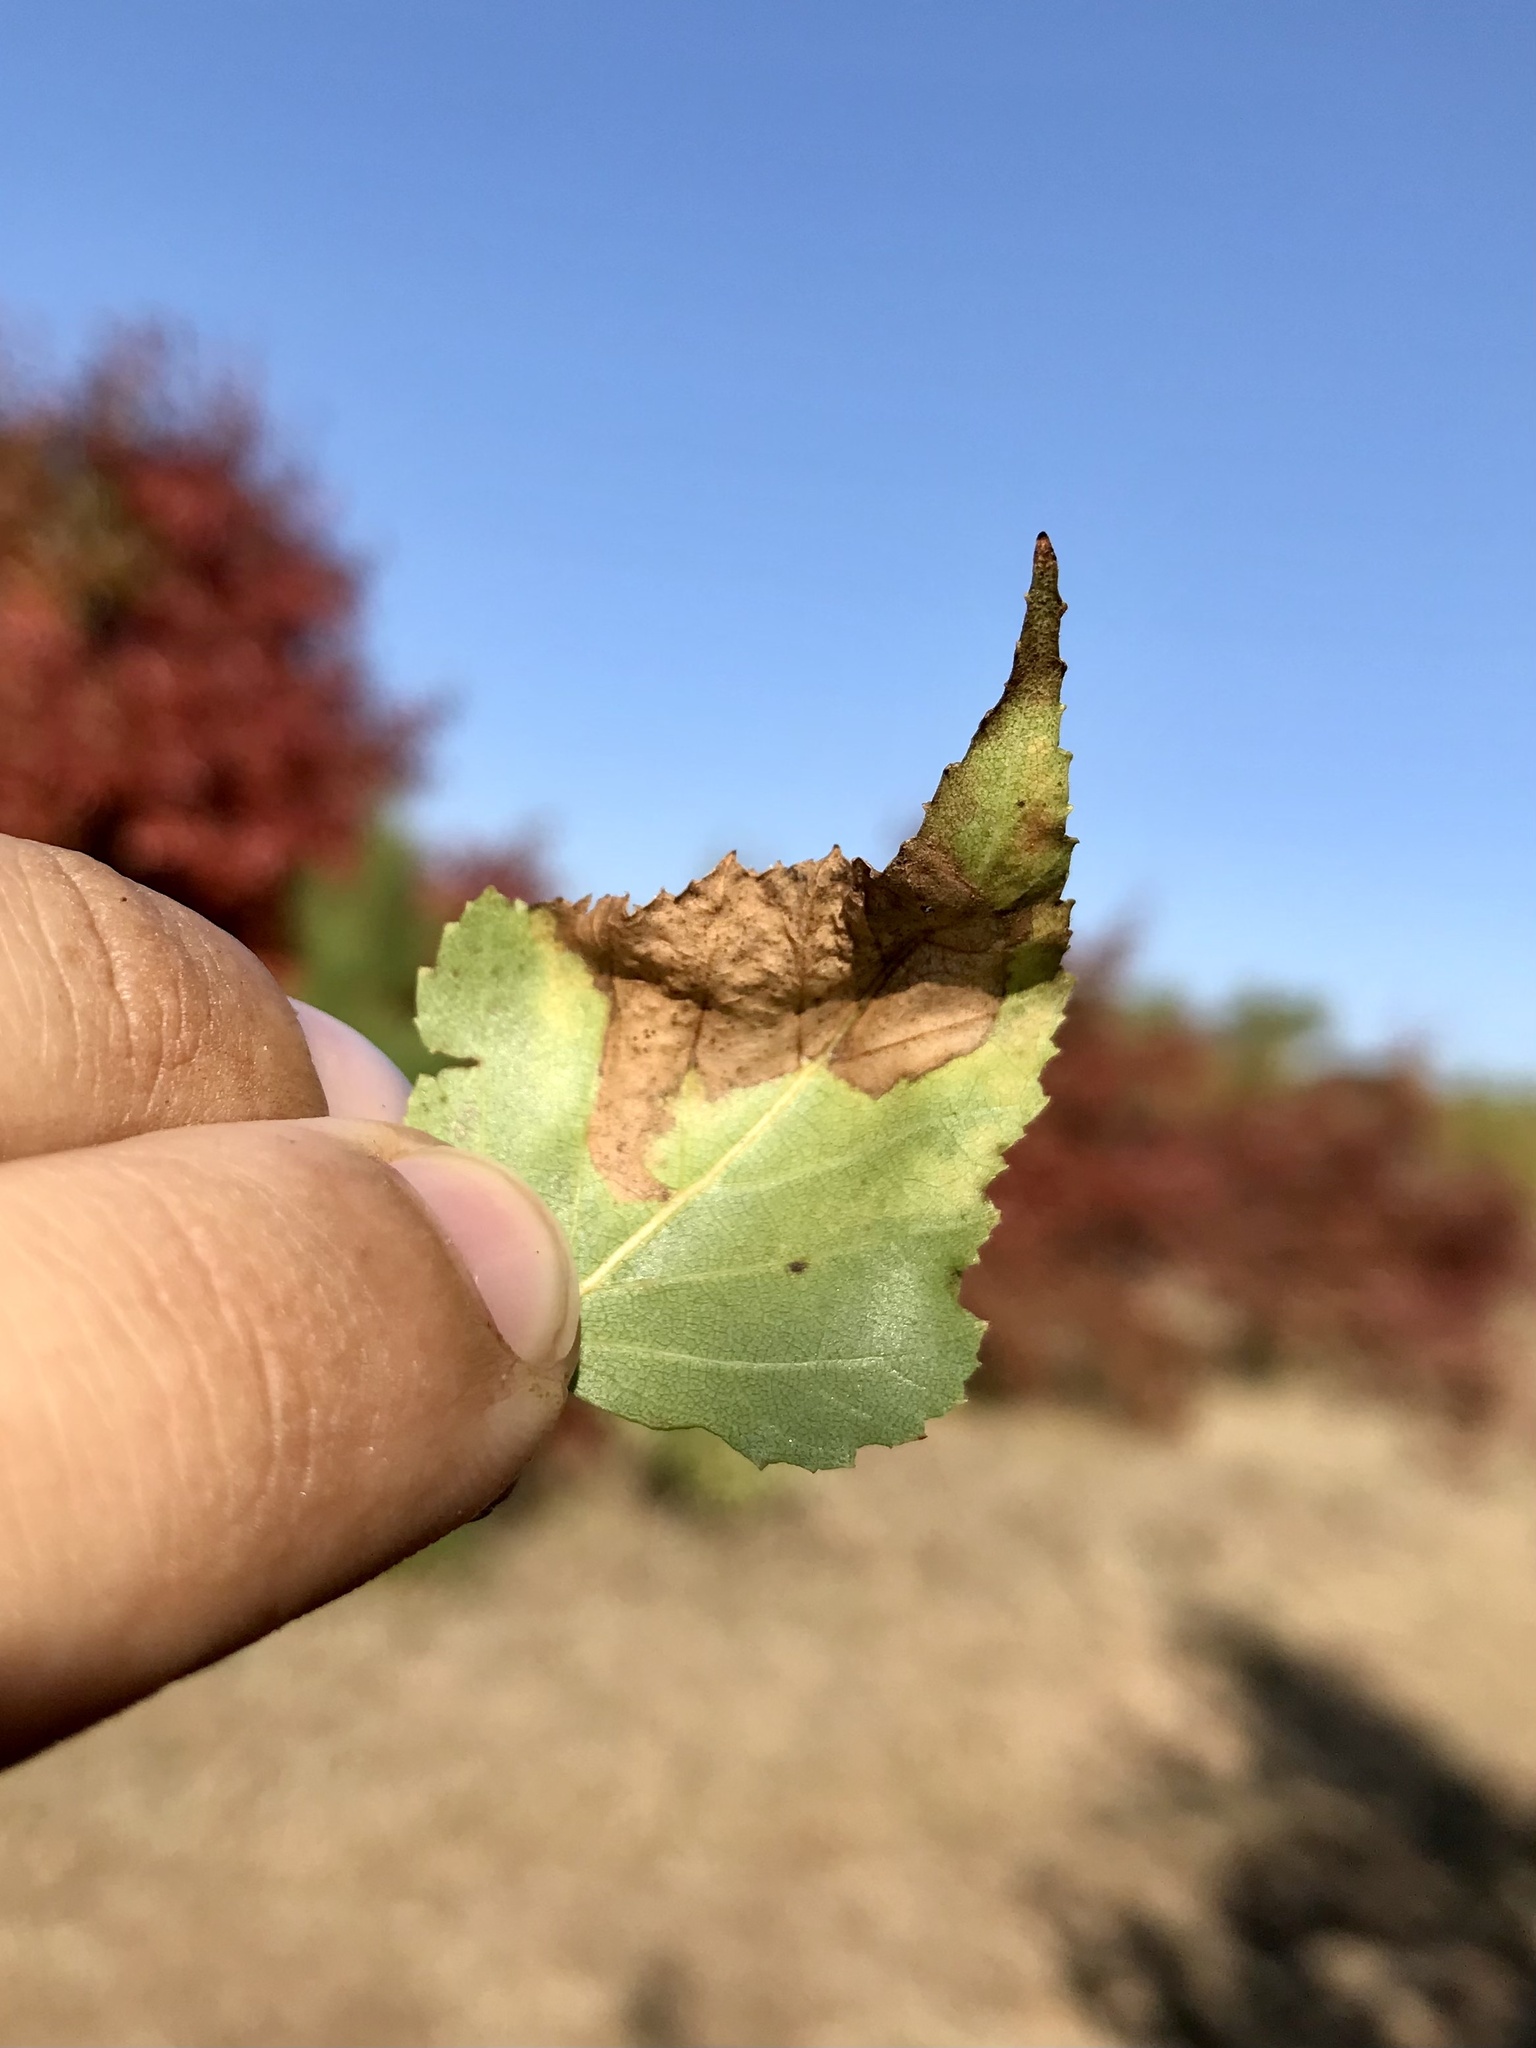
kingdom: Animalia
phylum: Arthropoda
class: Insecta
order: Hymenoptera
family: Tenthredinidae
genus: Profenusa
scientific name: Profenusa thomsoni
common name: Amber-marked birch leafminer
